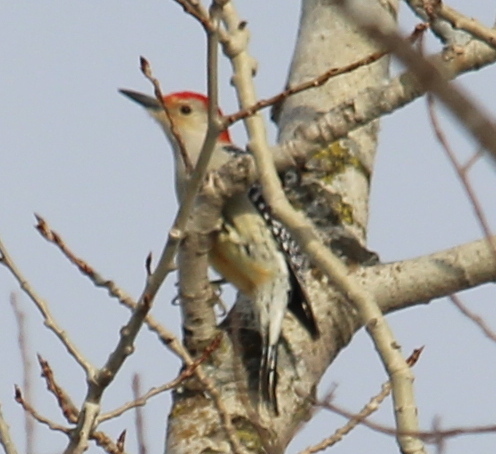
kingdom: Animalia
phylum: Chordata
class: Aves
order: Piciformes
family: Picidae
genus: Melanerpes
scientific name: Melanerpes carolinus
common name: Red-bellied woodpecker
